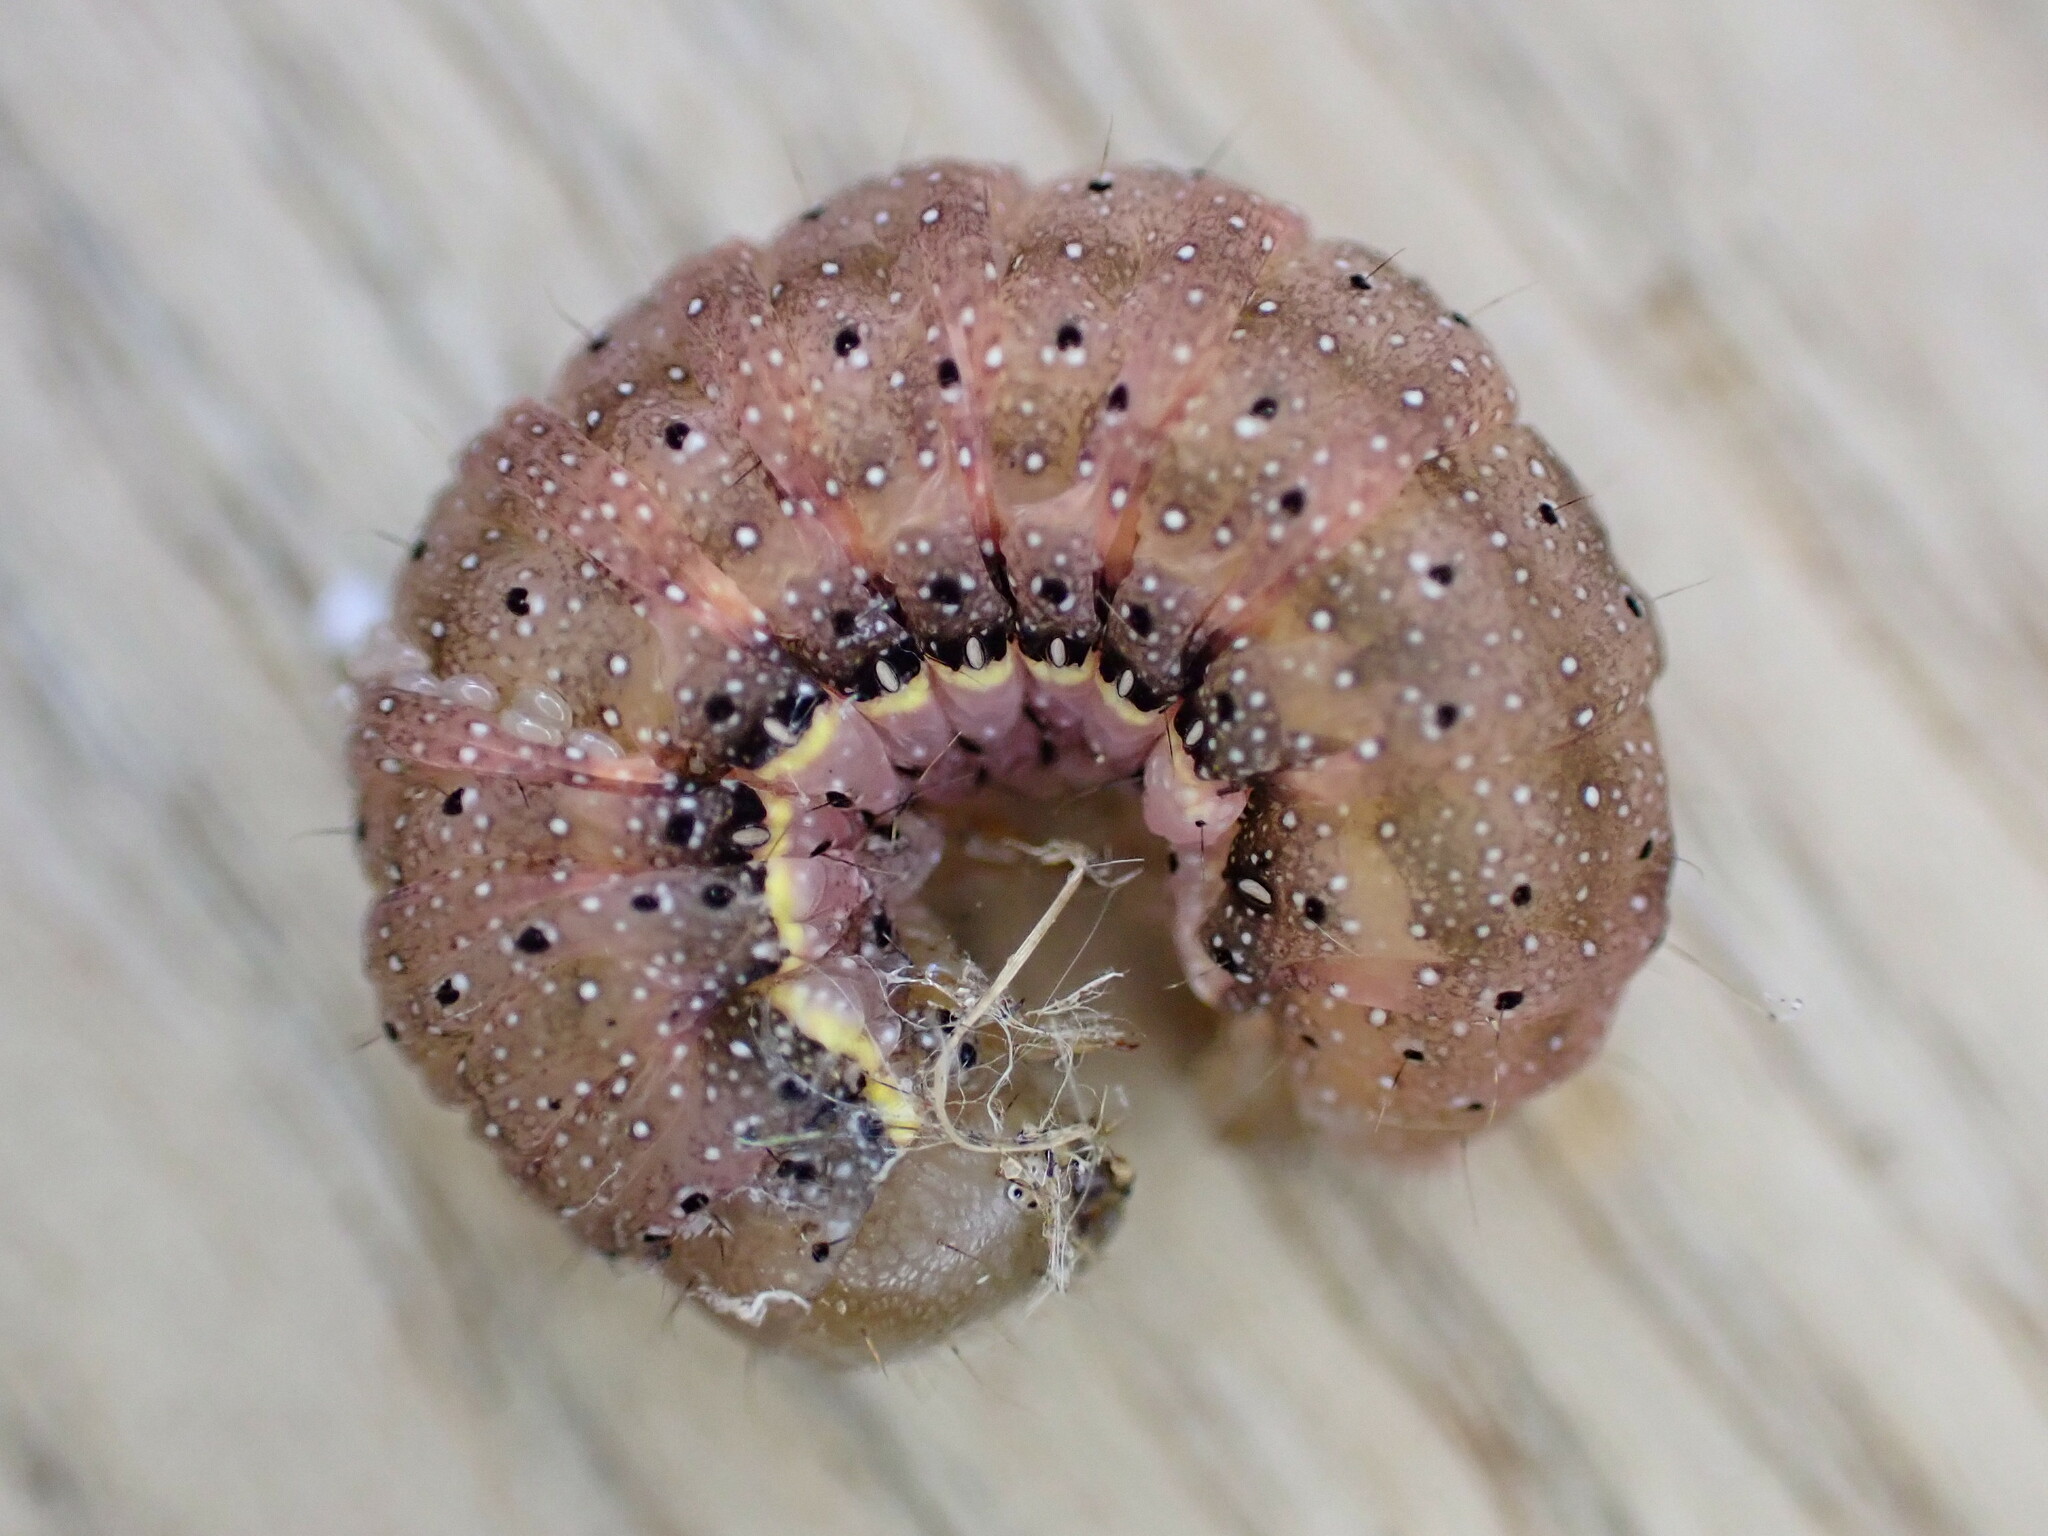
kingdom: Animalia
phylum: Arthropoda
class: Insecta
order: Lepidoptera
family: Noctuidae
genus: Lacanobia
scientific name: Lacanobia oleracea
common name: Bright-line brown-eye
